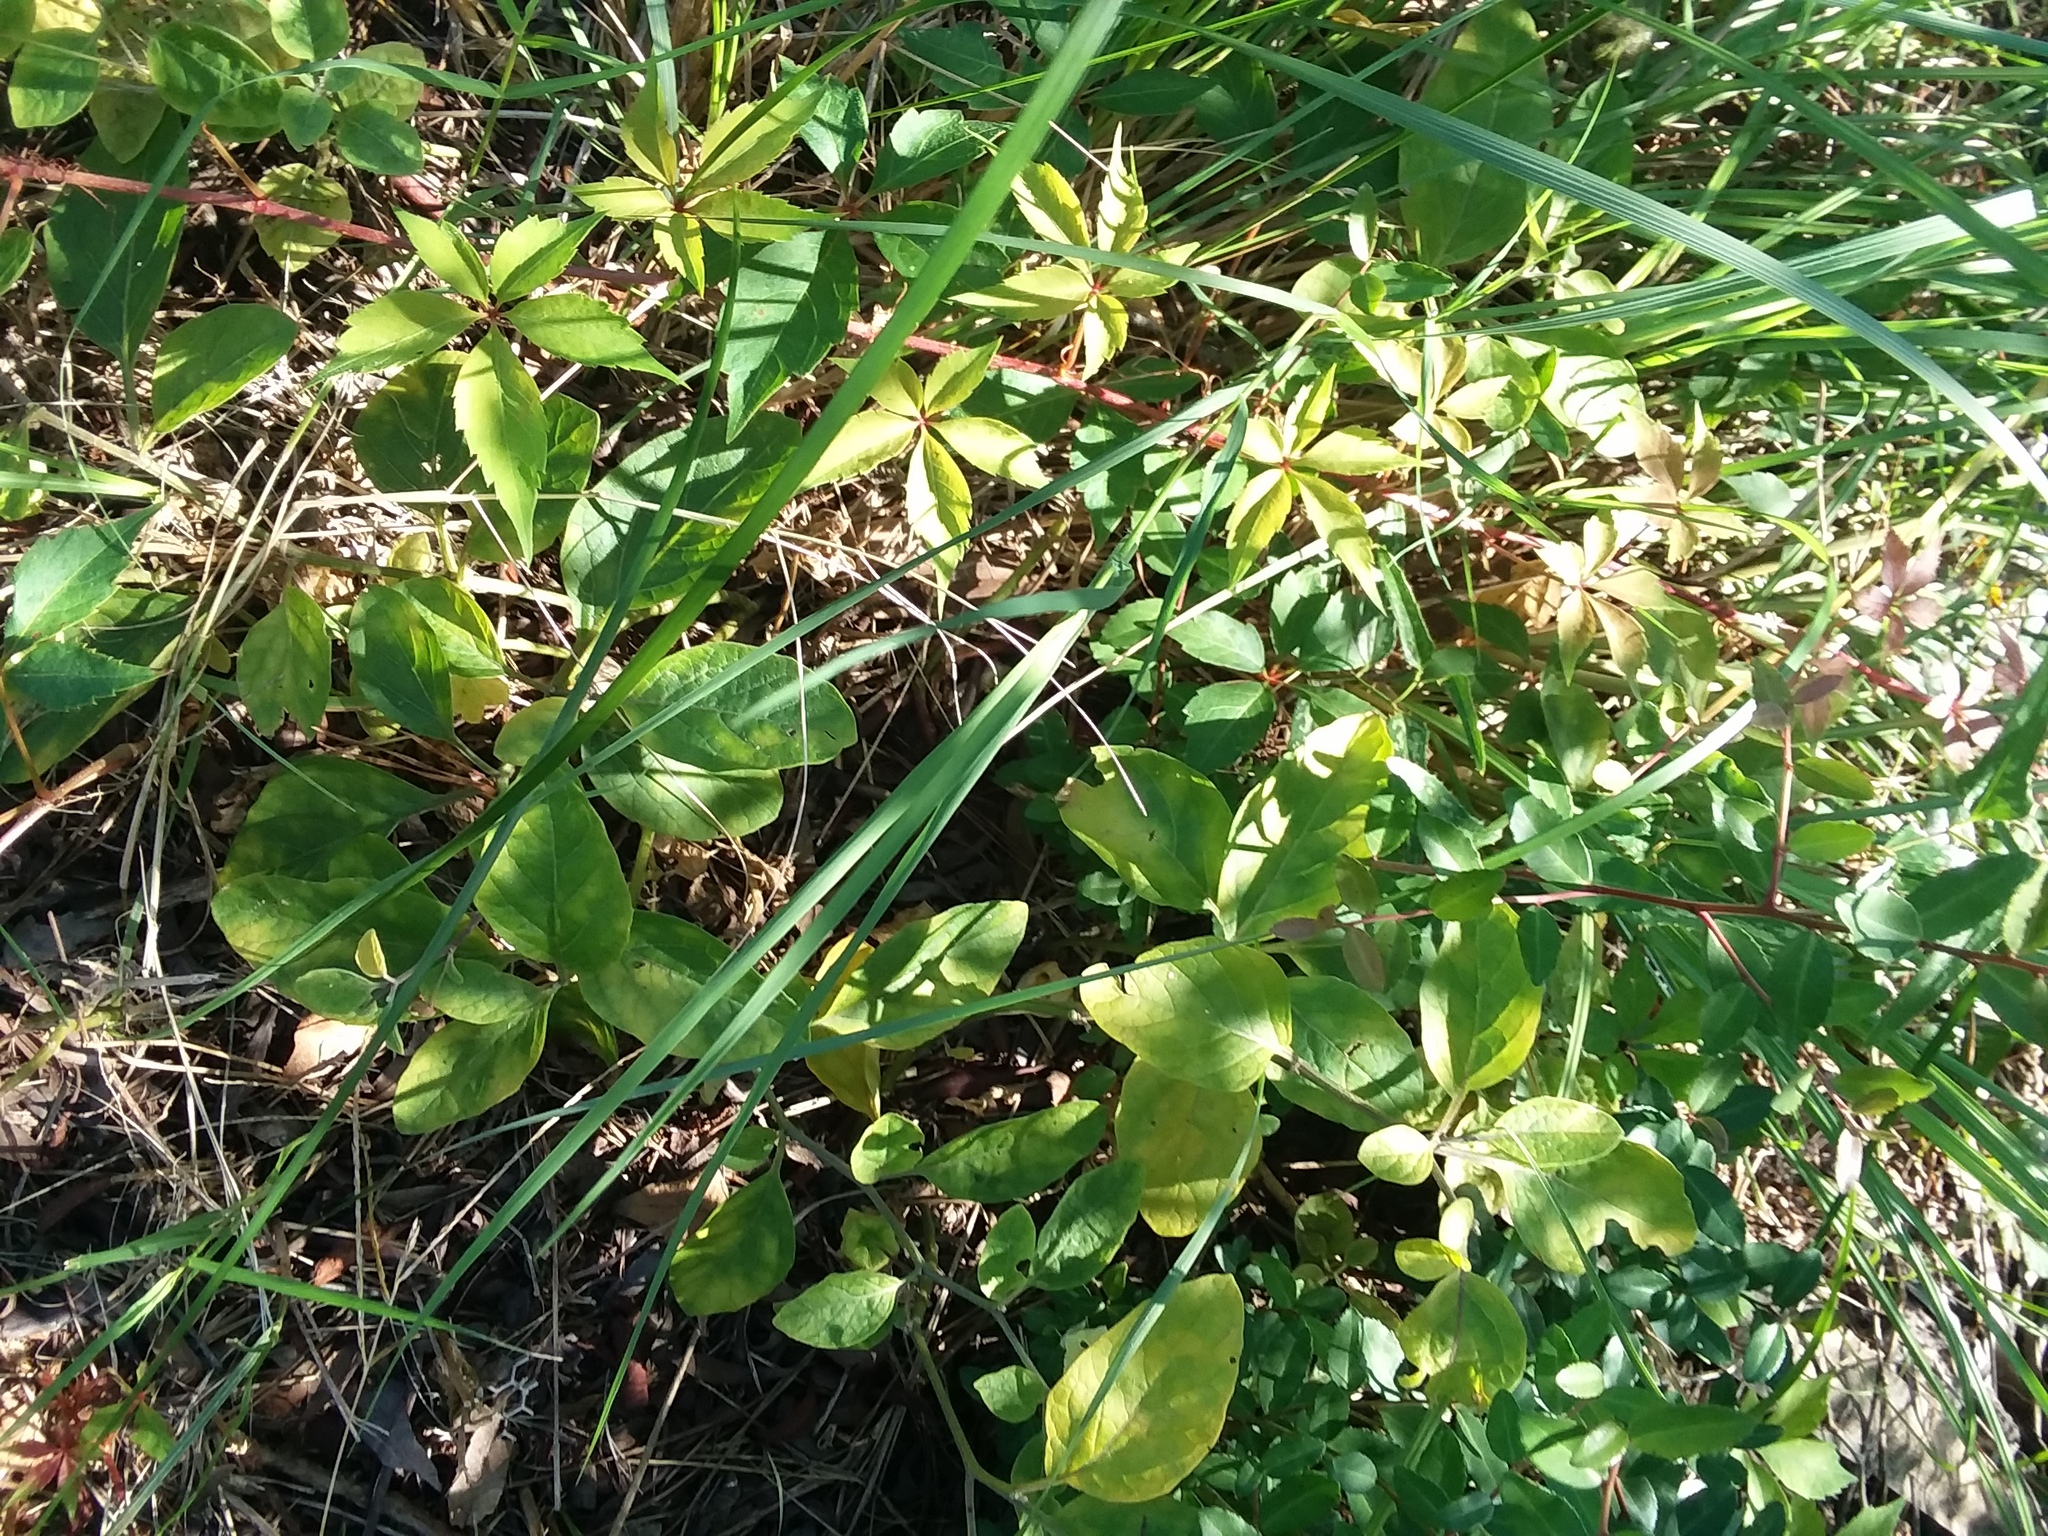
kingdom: Plantae
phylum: Tracheophyta
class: Magnoliopsida
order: Solanales
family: Solanaceae
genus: Physalis
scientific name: Physalis walteri
